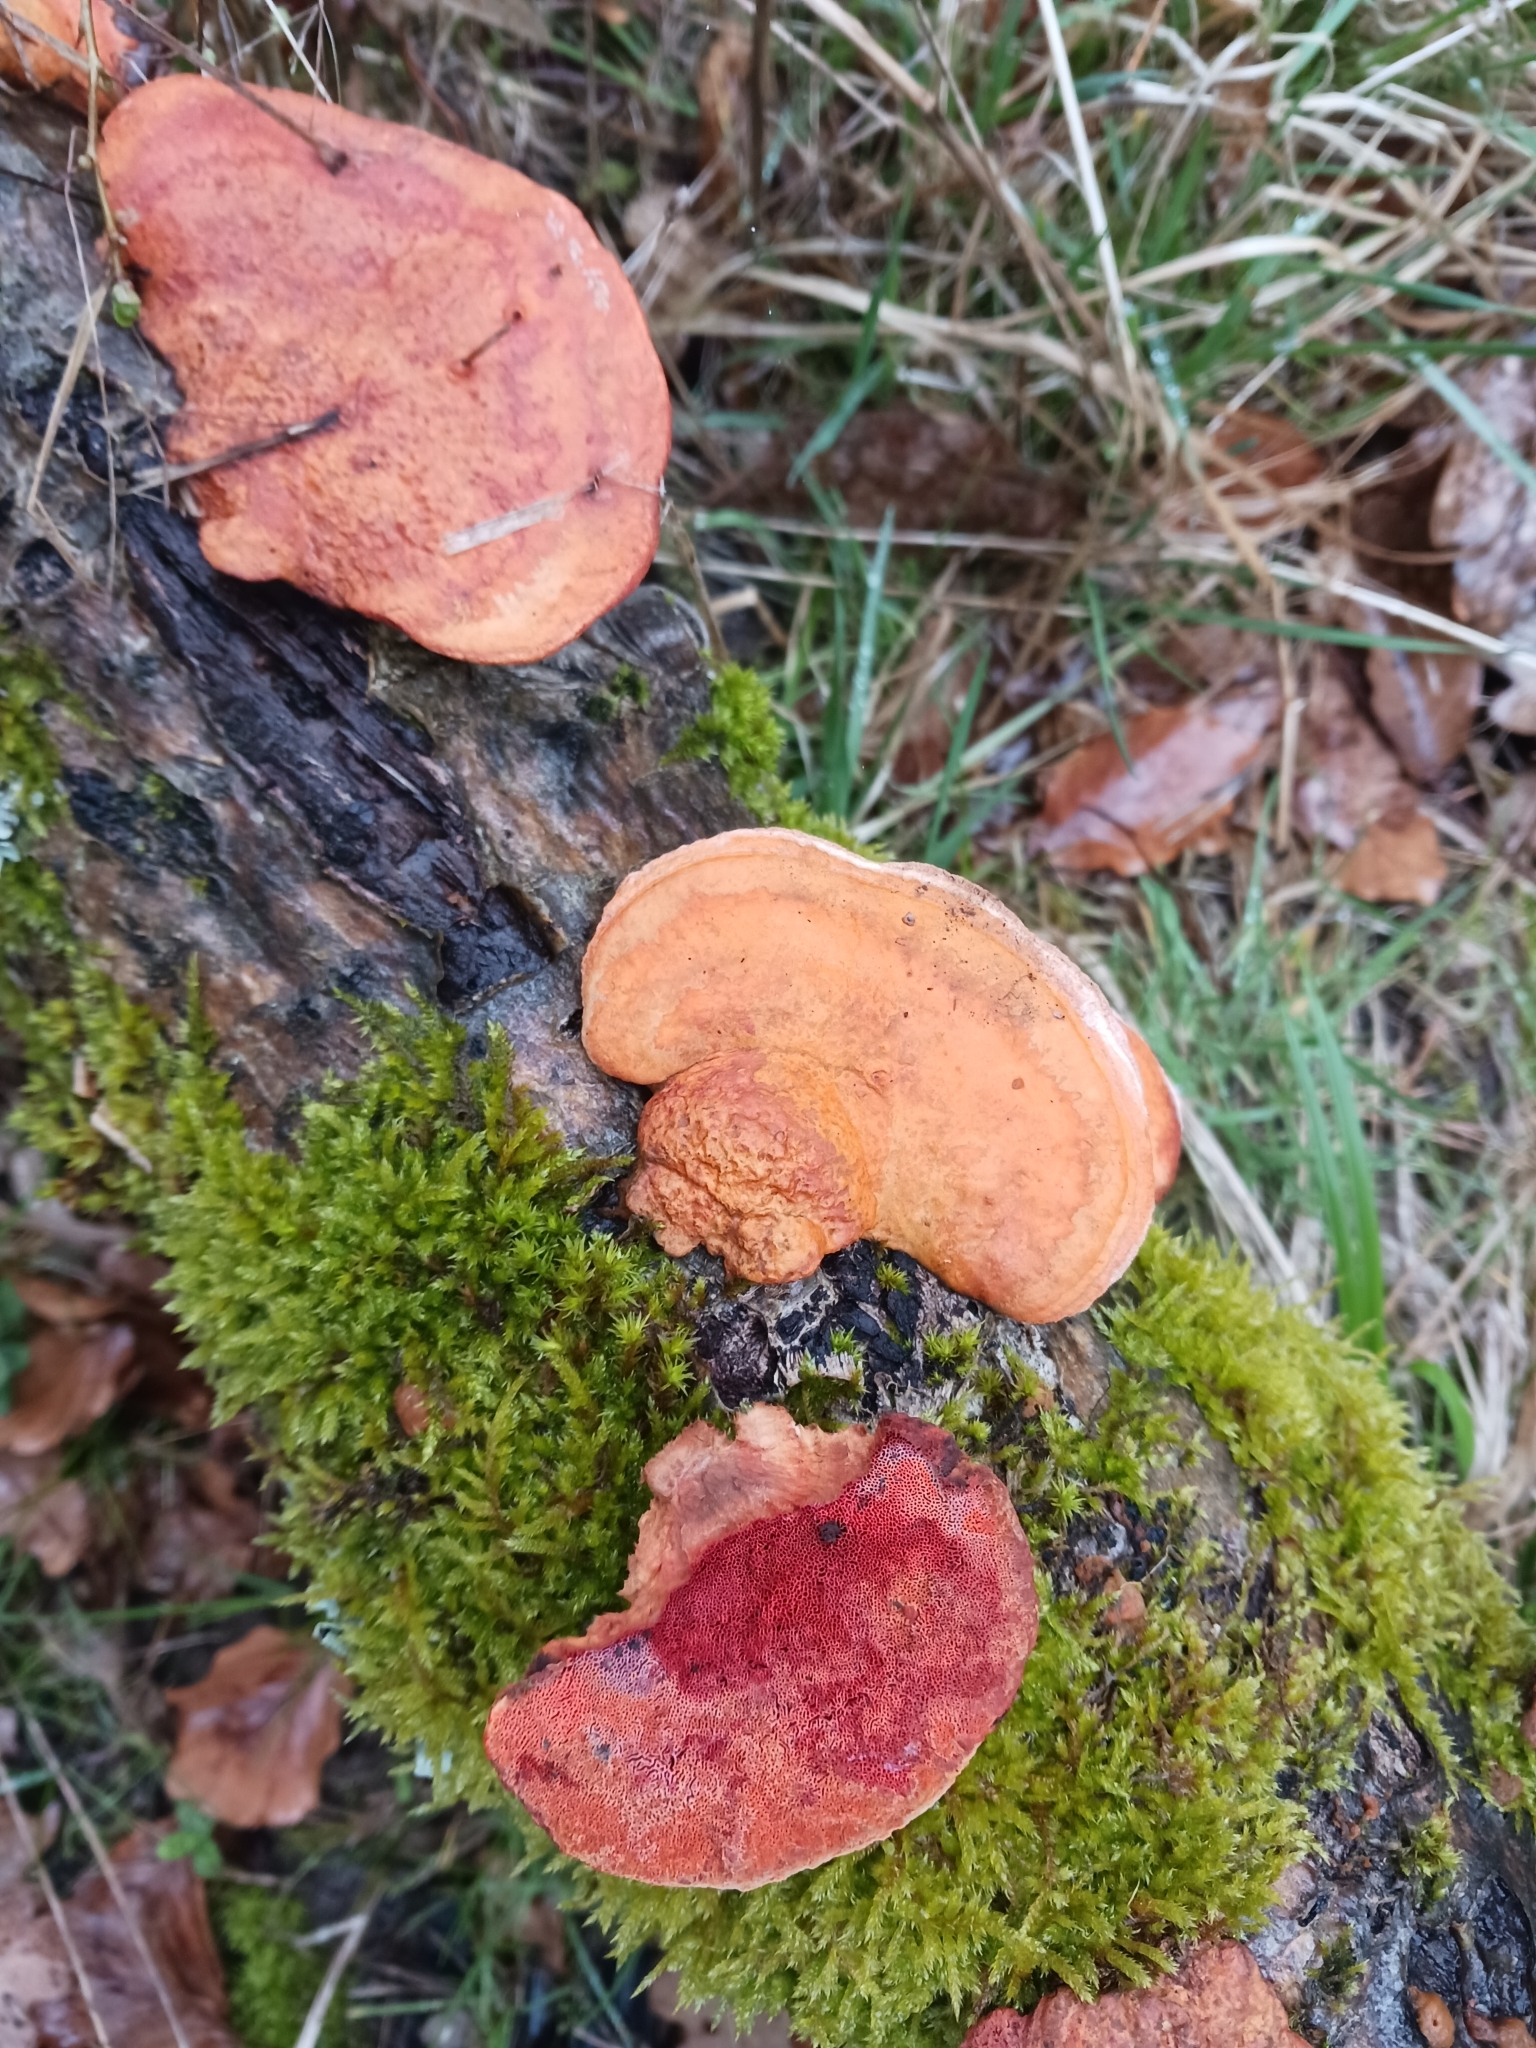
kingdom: Fungi
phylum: Basidiomycota
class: Agaricomycetes
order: Polyporales
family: Polyporaceae
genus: Trametes
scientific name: Trametes cinnabarina
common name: Northern cinnabar polypore
